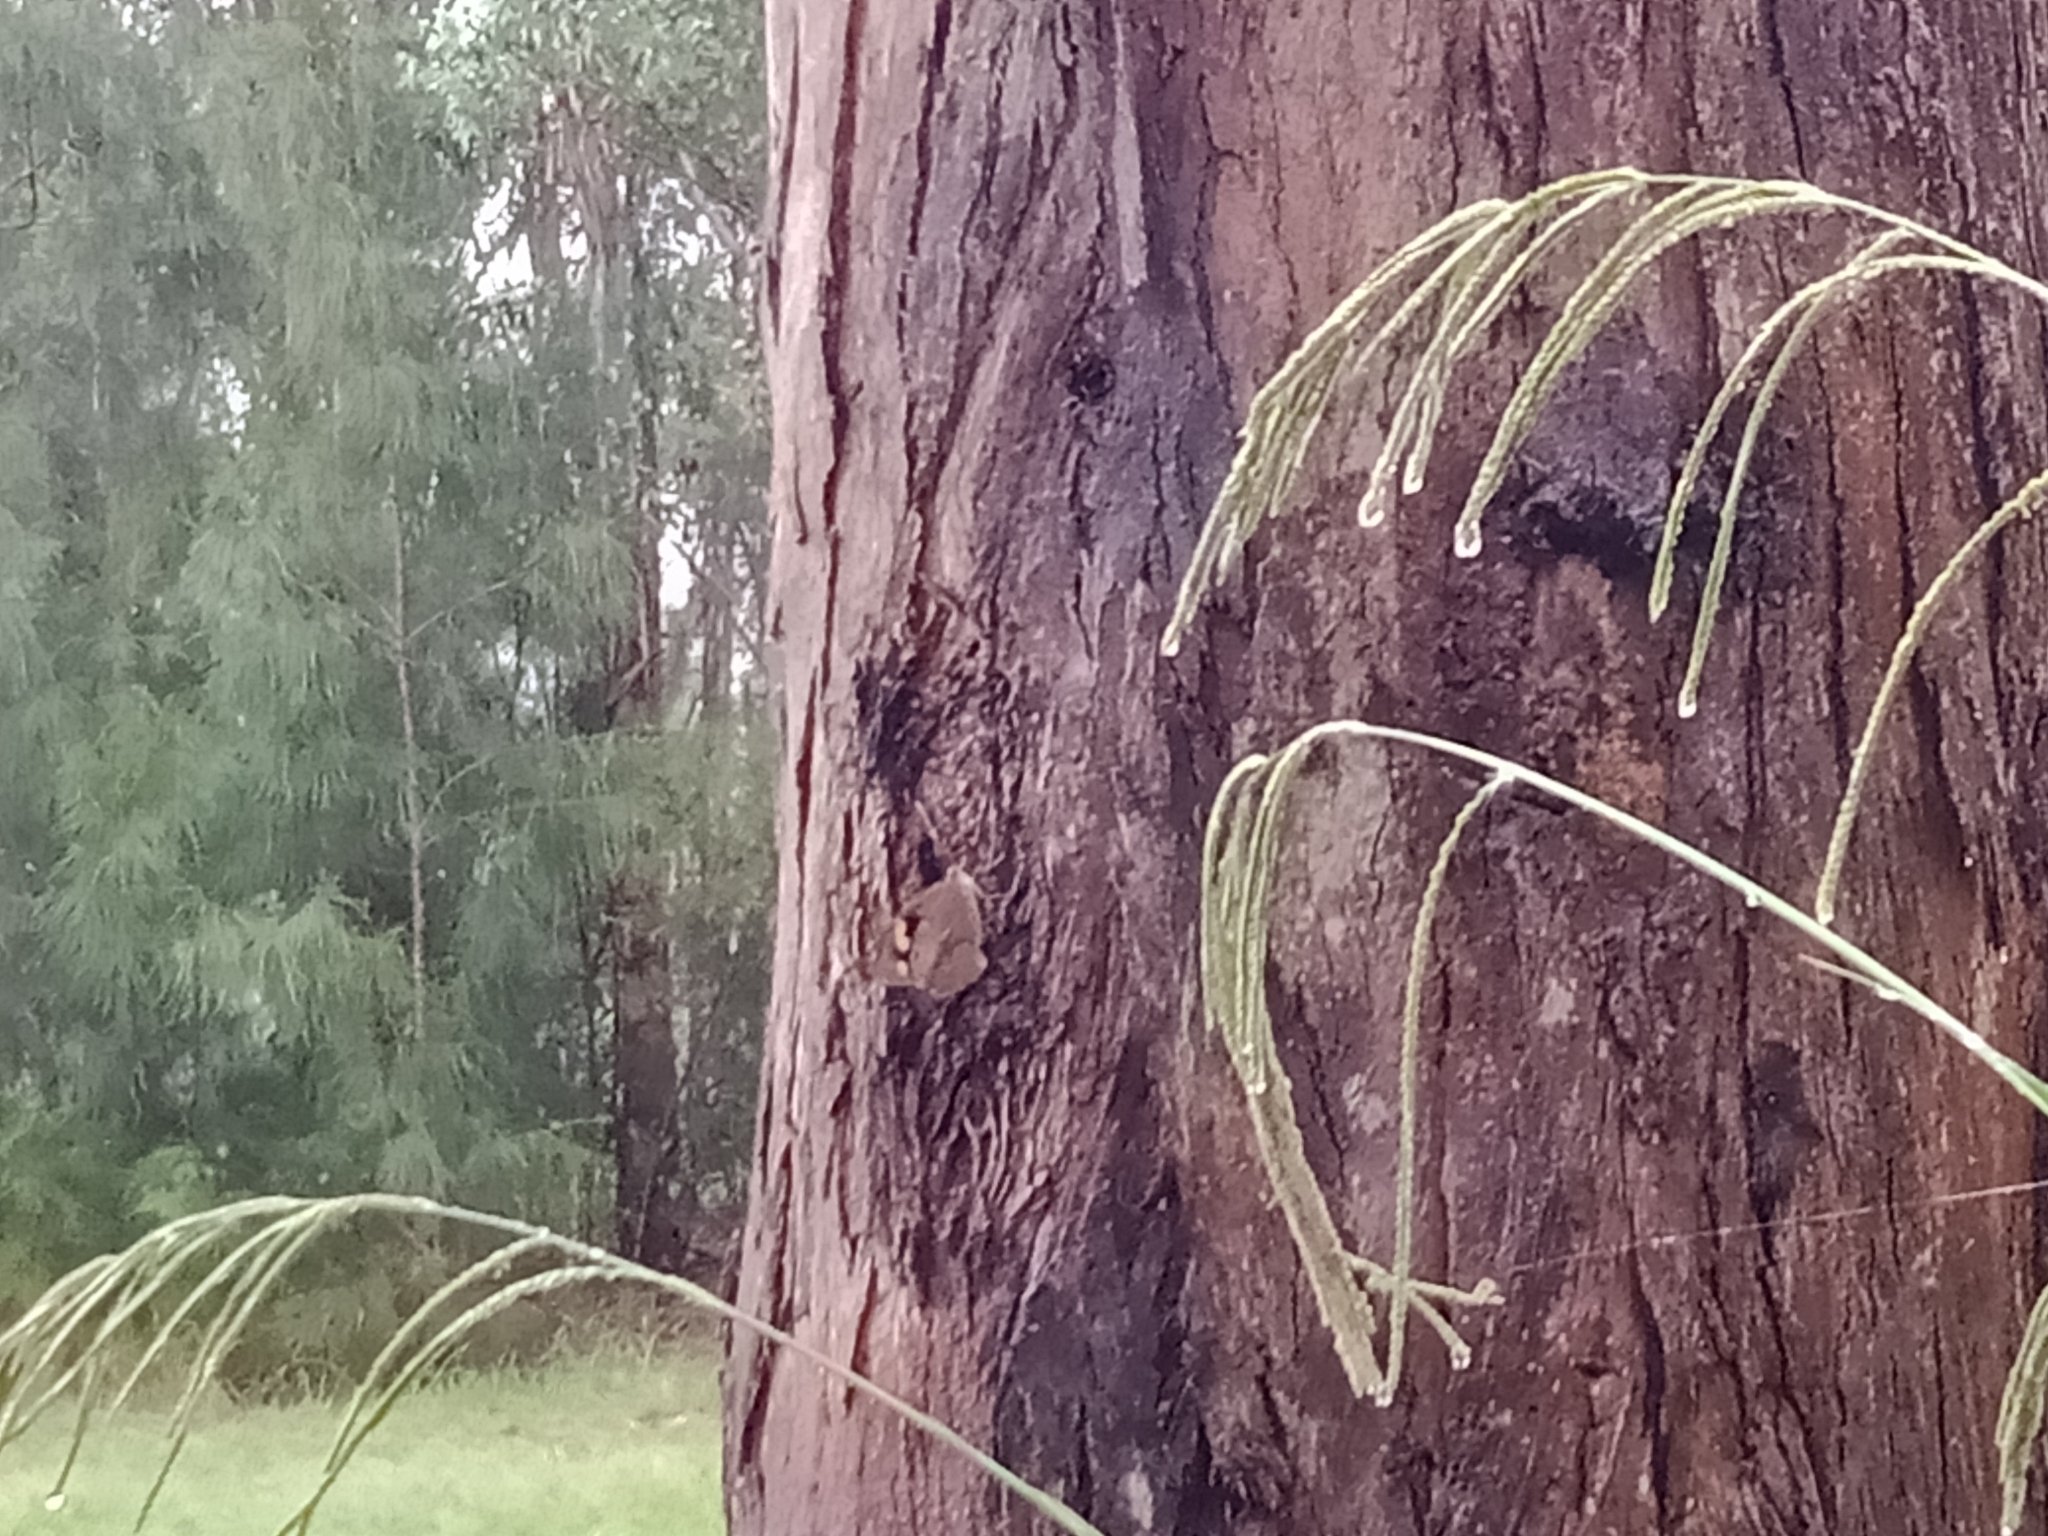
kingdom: Animalia
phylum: Arthropoda
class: Insecta
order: Lepidoptera
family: Nymphalidae
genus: Heteronympha
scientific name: Heteronympha merope
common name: Common brown
